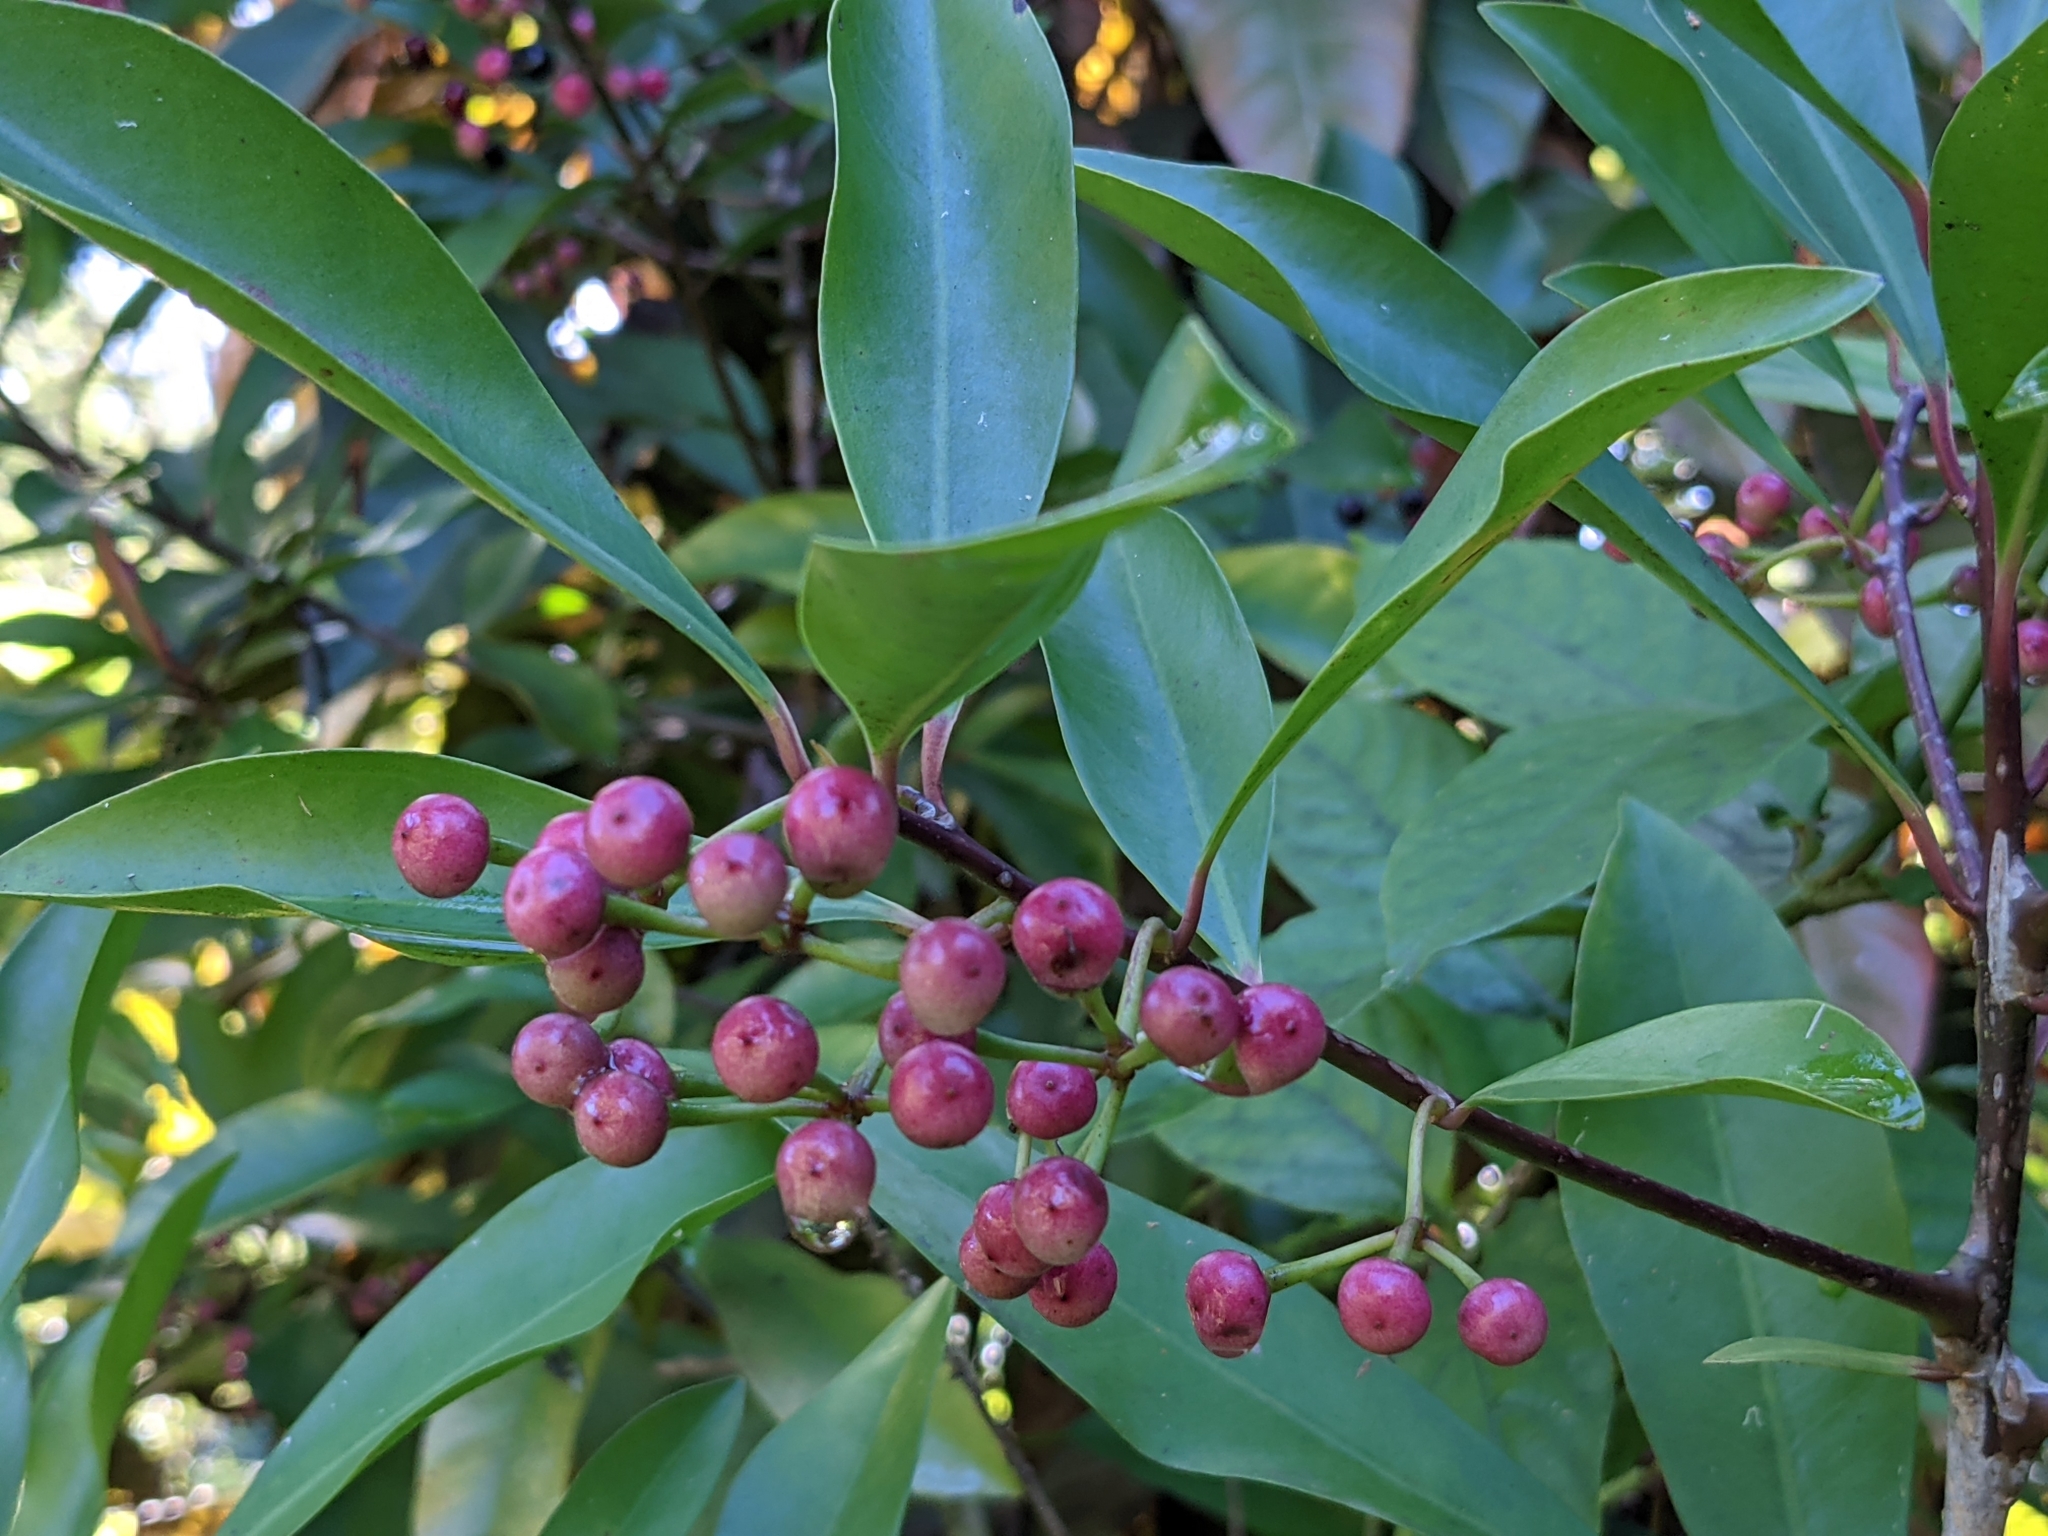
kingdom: Plantae
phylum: Tracheophyta
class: Magnoliopsida
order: Ericales
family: Primulaceae
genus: Ardisia
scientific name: Ardisia elliptica
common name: Shoebutton
